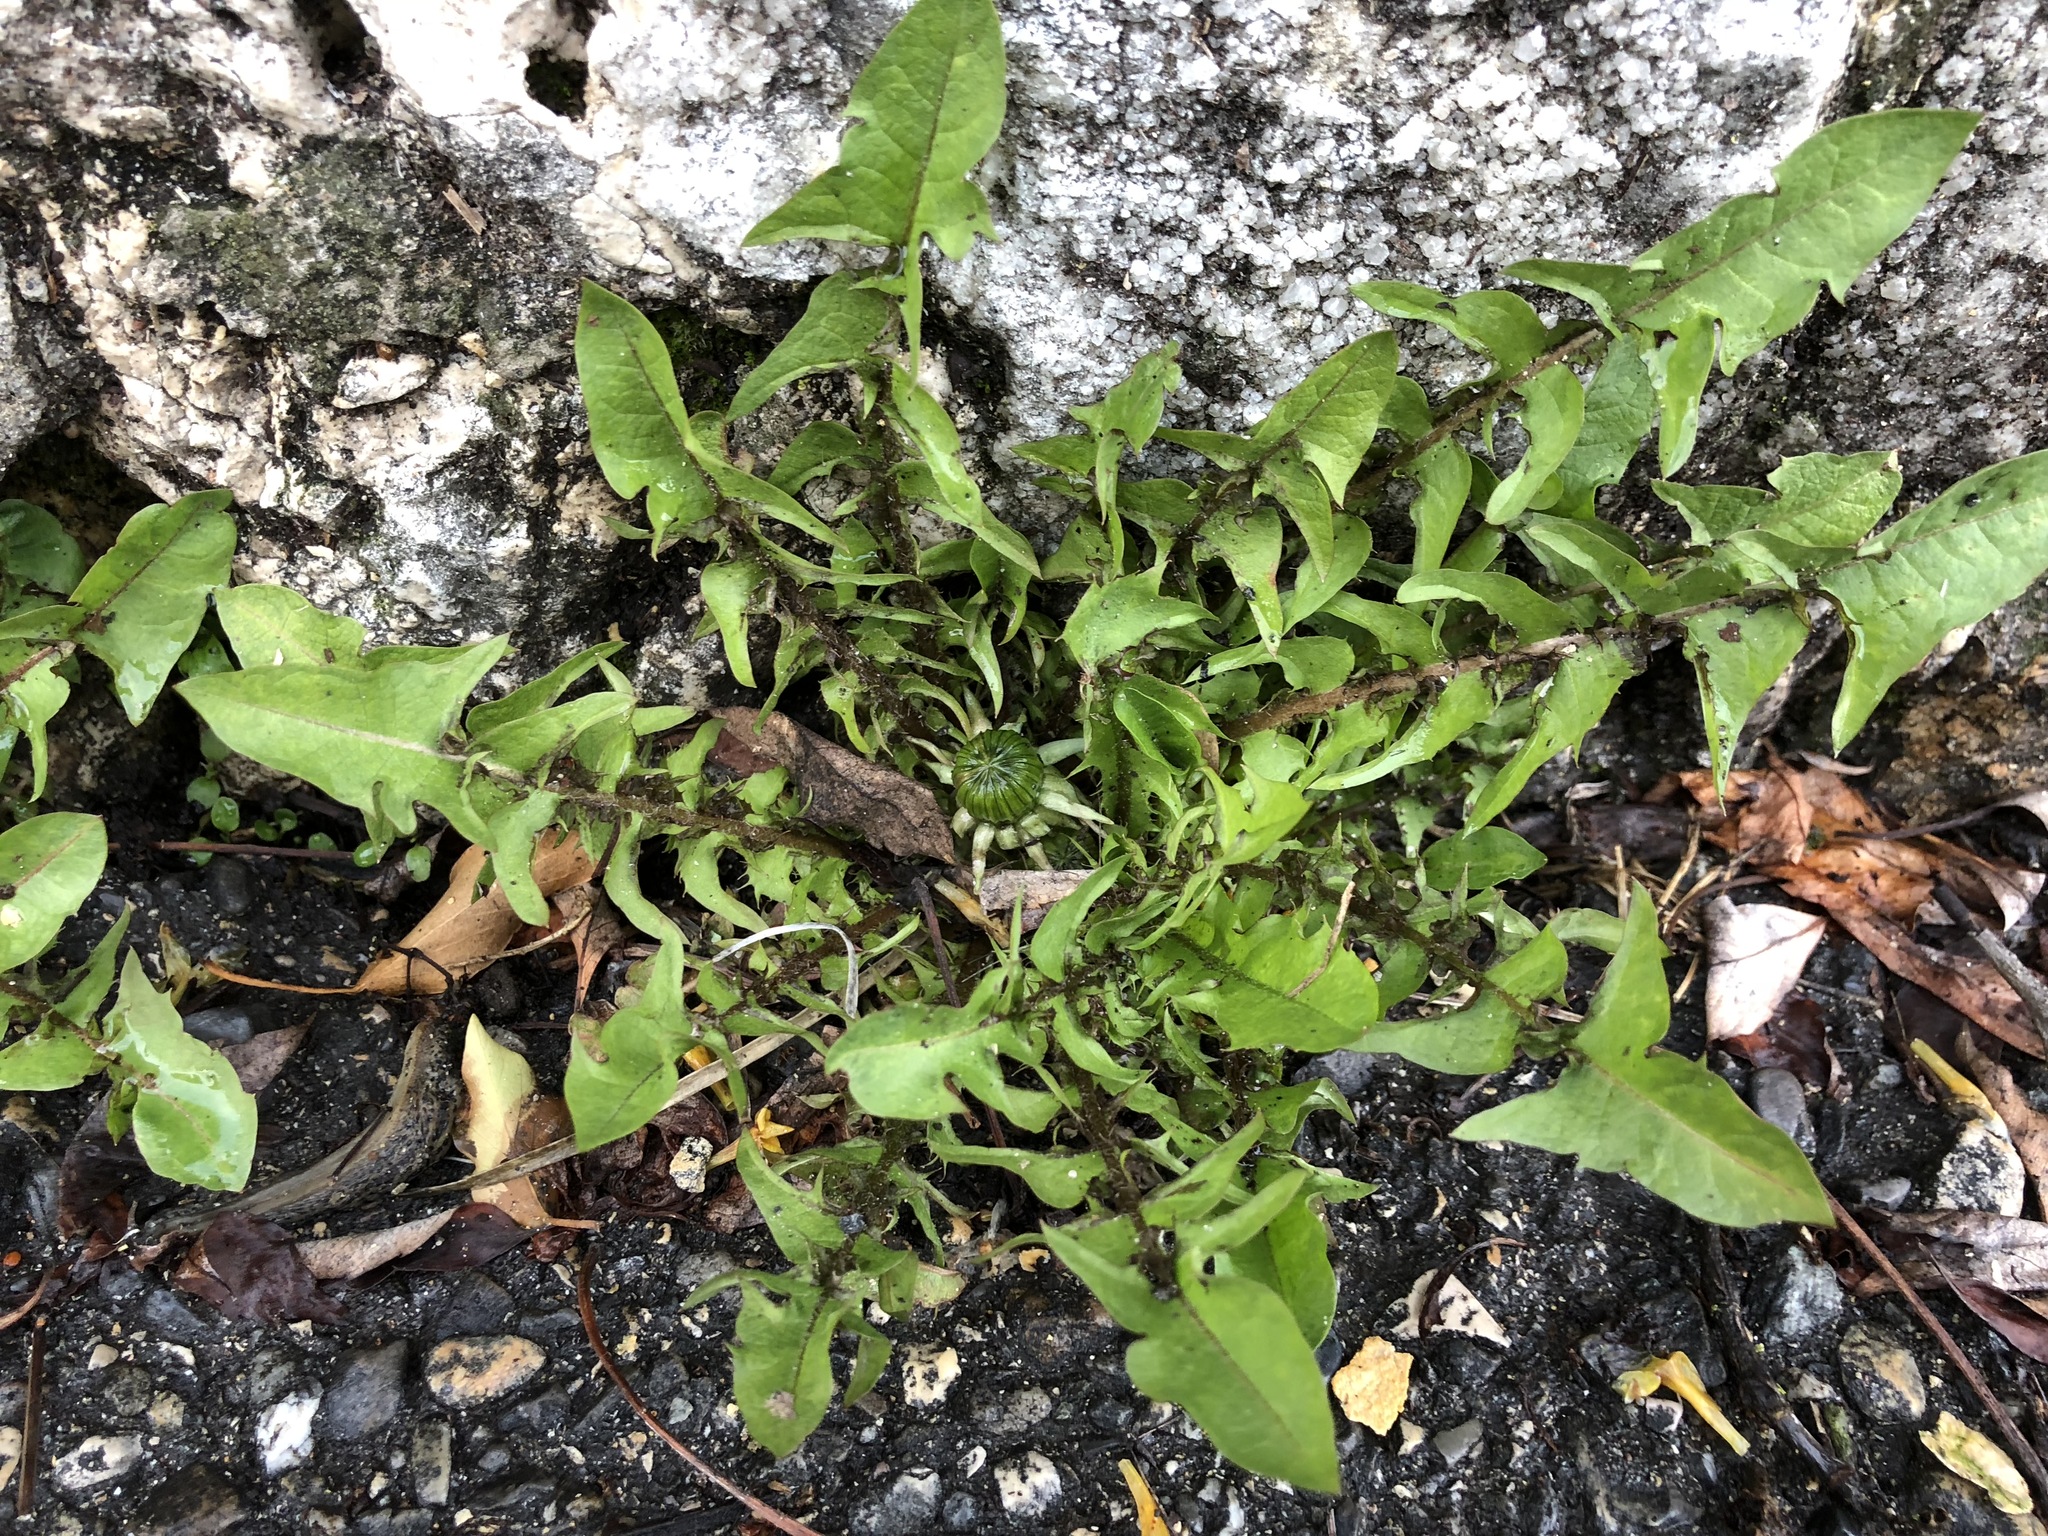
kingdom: Plantae
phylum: Tracheophyta
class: Magnoliopsida
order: Asterales
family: Asteraceae
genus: Taraxacum
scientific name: Taraxacum officinale
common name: Common dandelion
